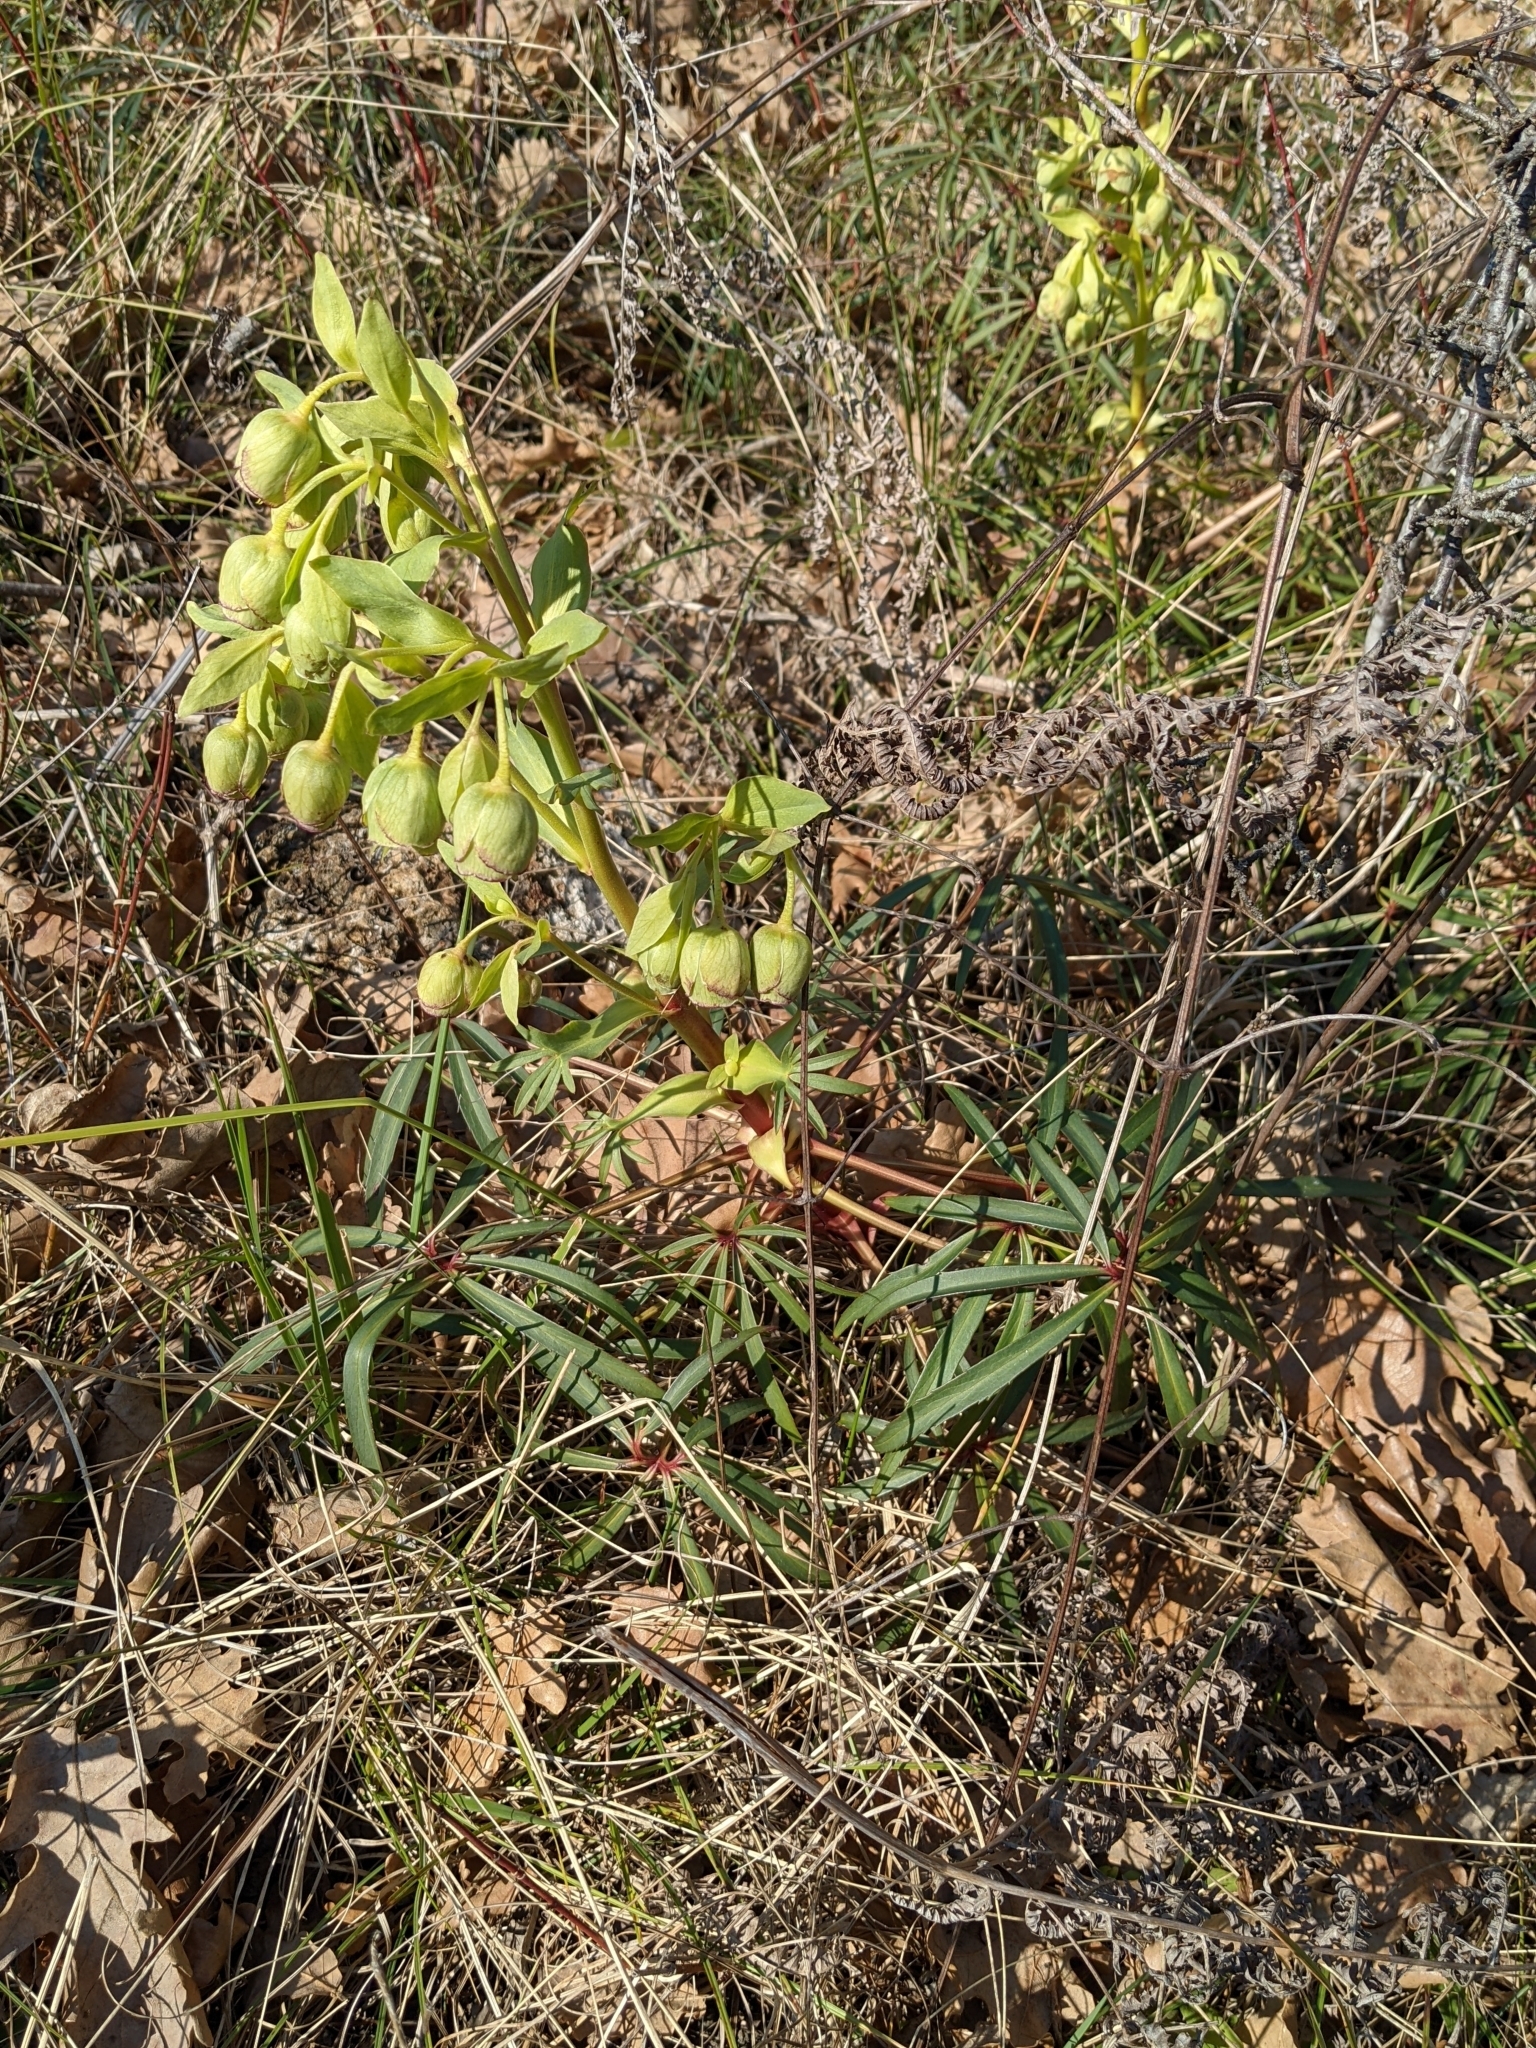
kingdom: Plantae
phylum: Tracheophyta
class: Magnoliopsida
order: Ranunculales
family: Ranunculaceae
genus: Helleborus
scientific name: Helleborus foetidus
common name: Stinking hellebore
